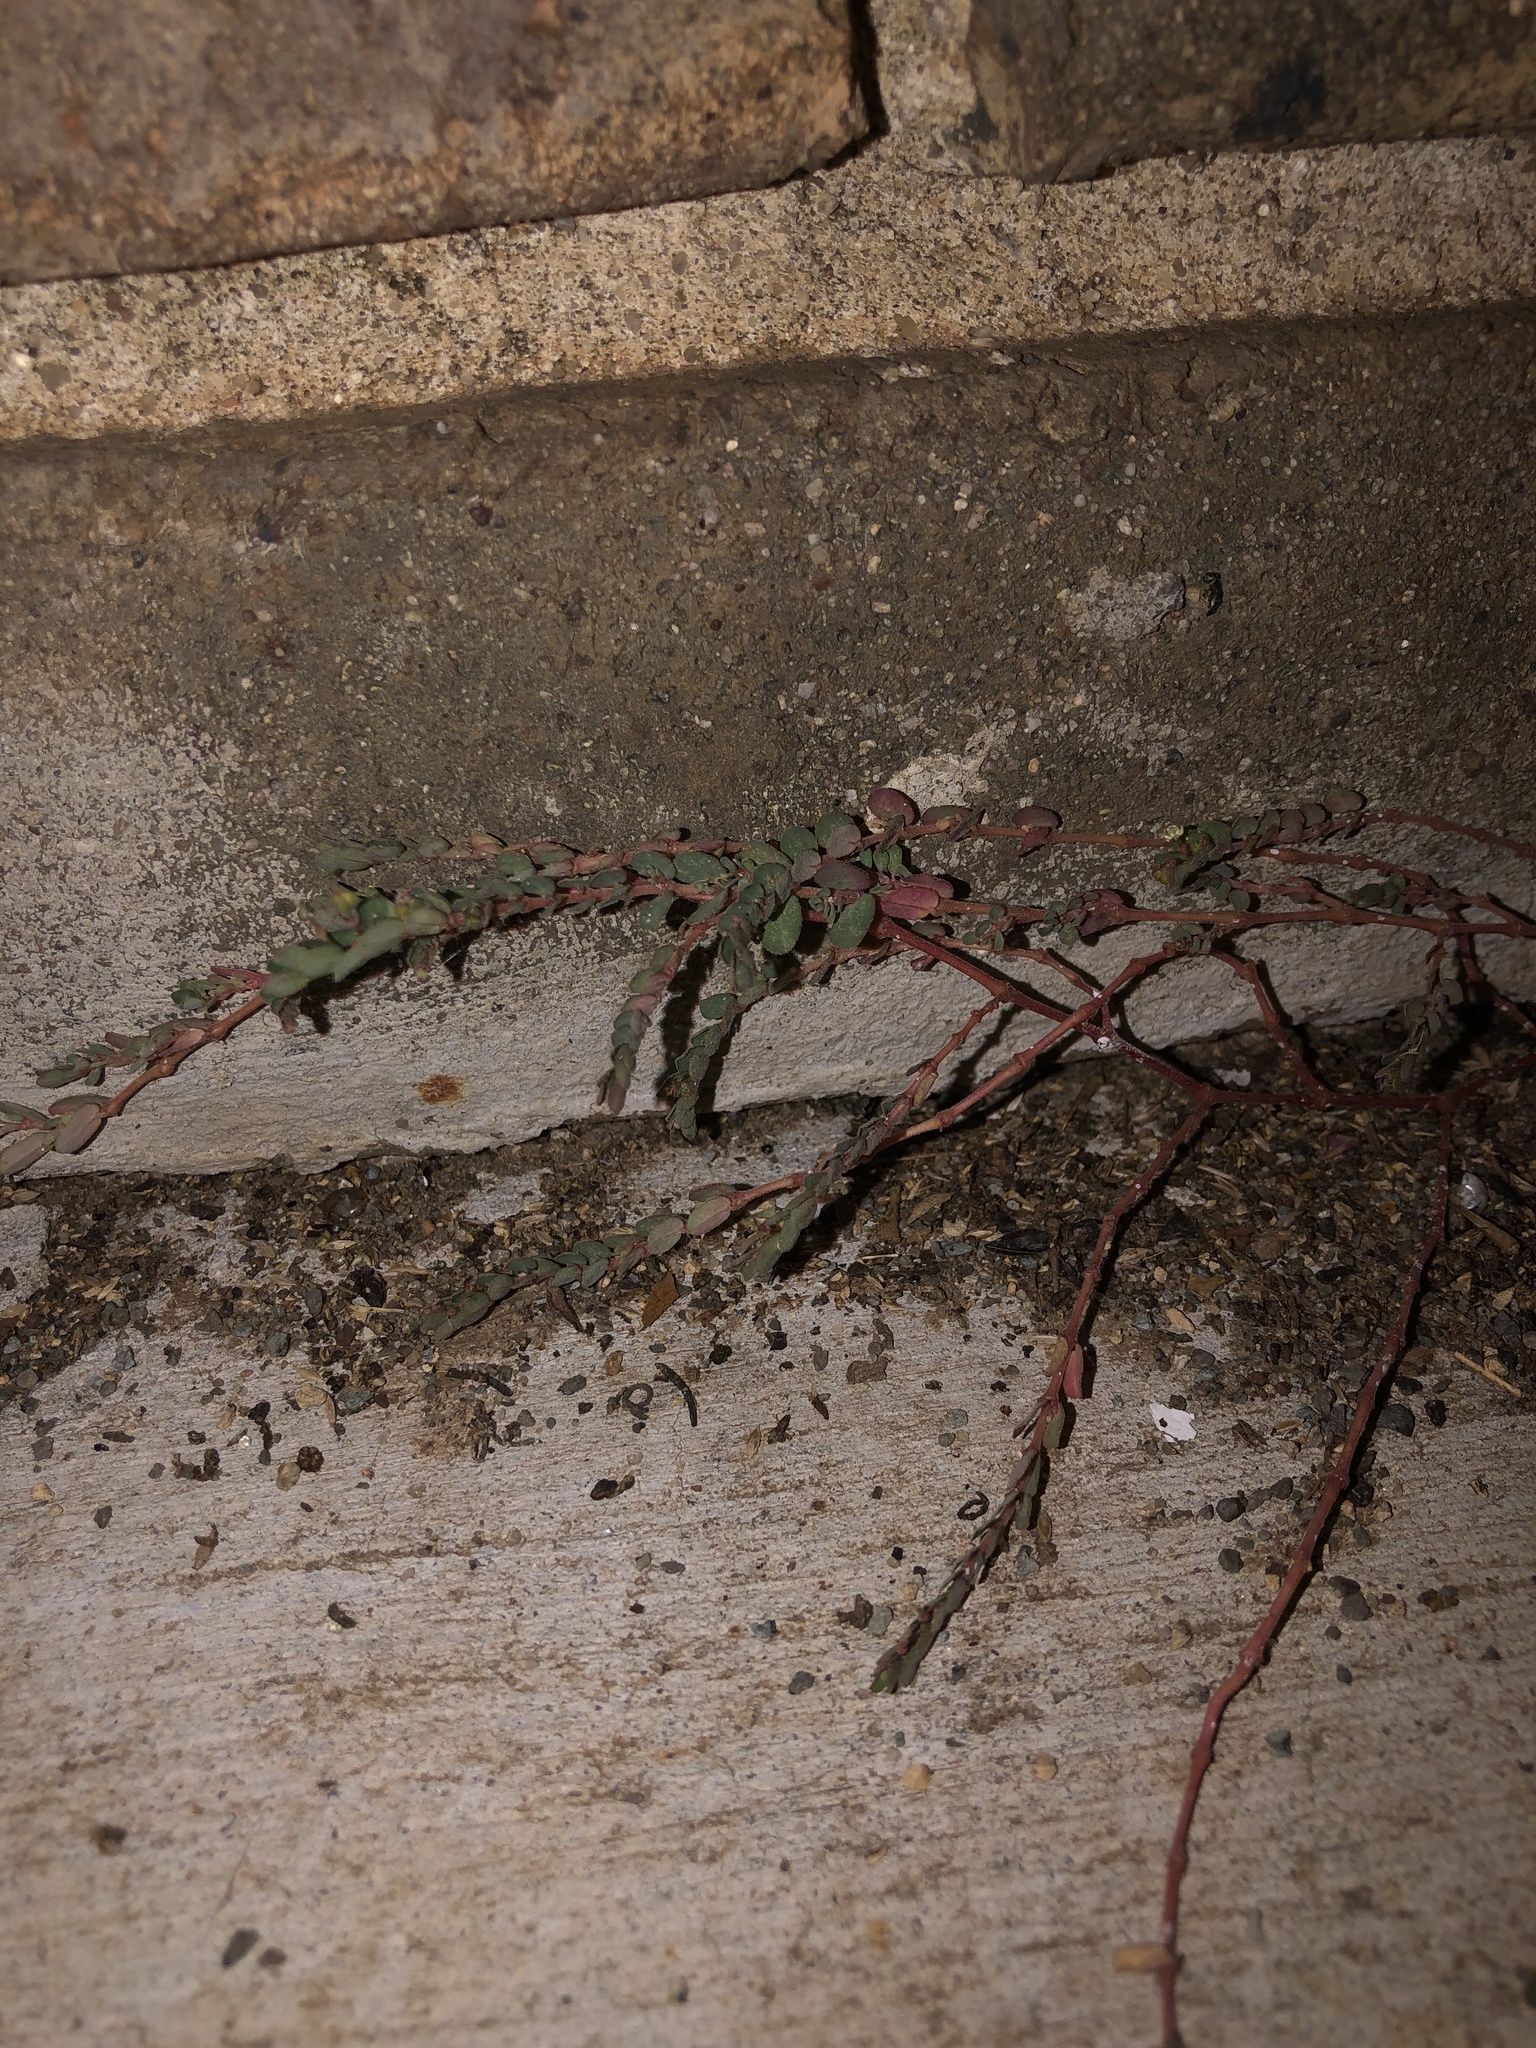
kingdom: Plantae
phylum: Tracheophyta
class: Magnoliopsida
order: Malpighiales
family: Euphorbiaceae
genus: Euphorbia
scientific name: Euphorbia prostrata
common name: Prostrate sandmat
